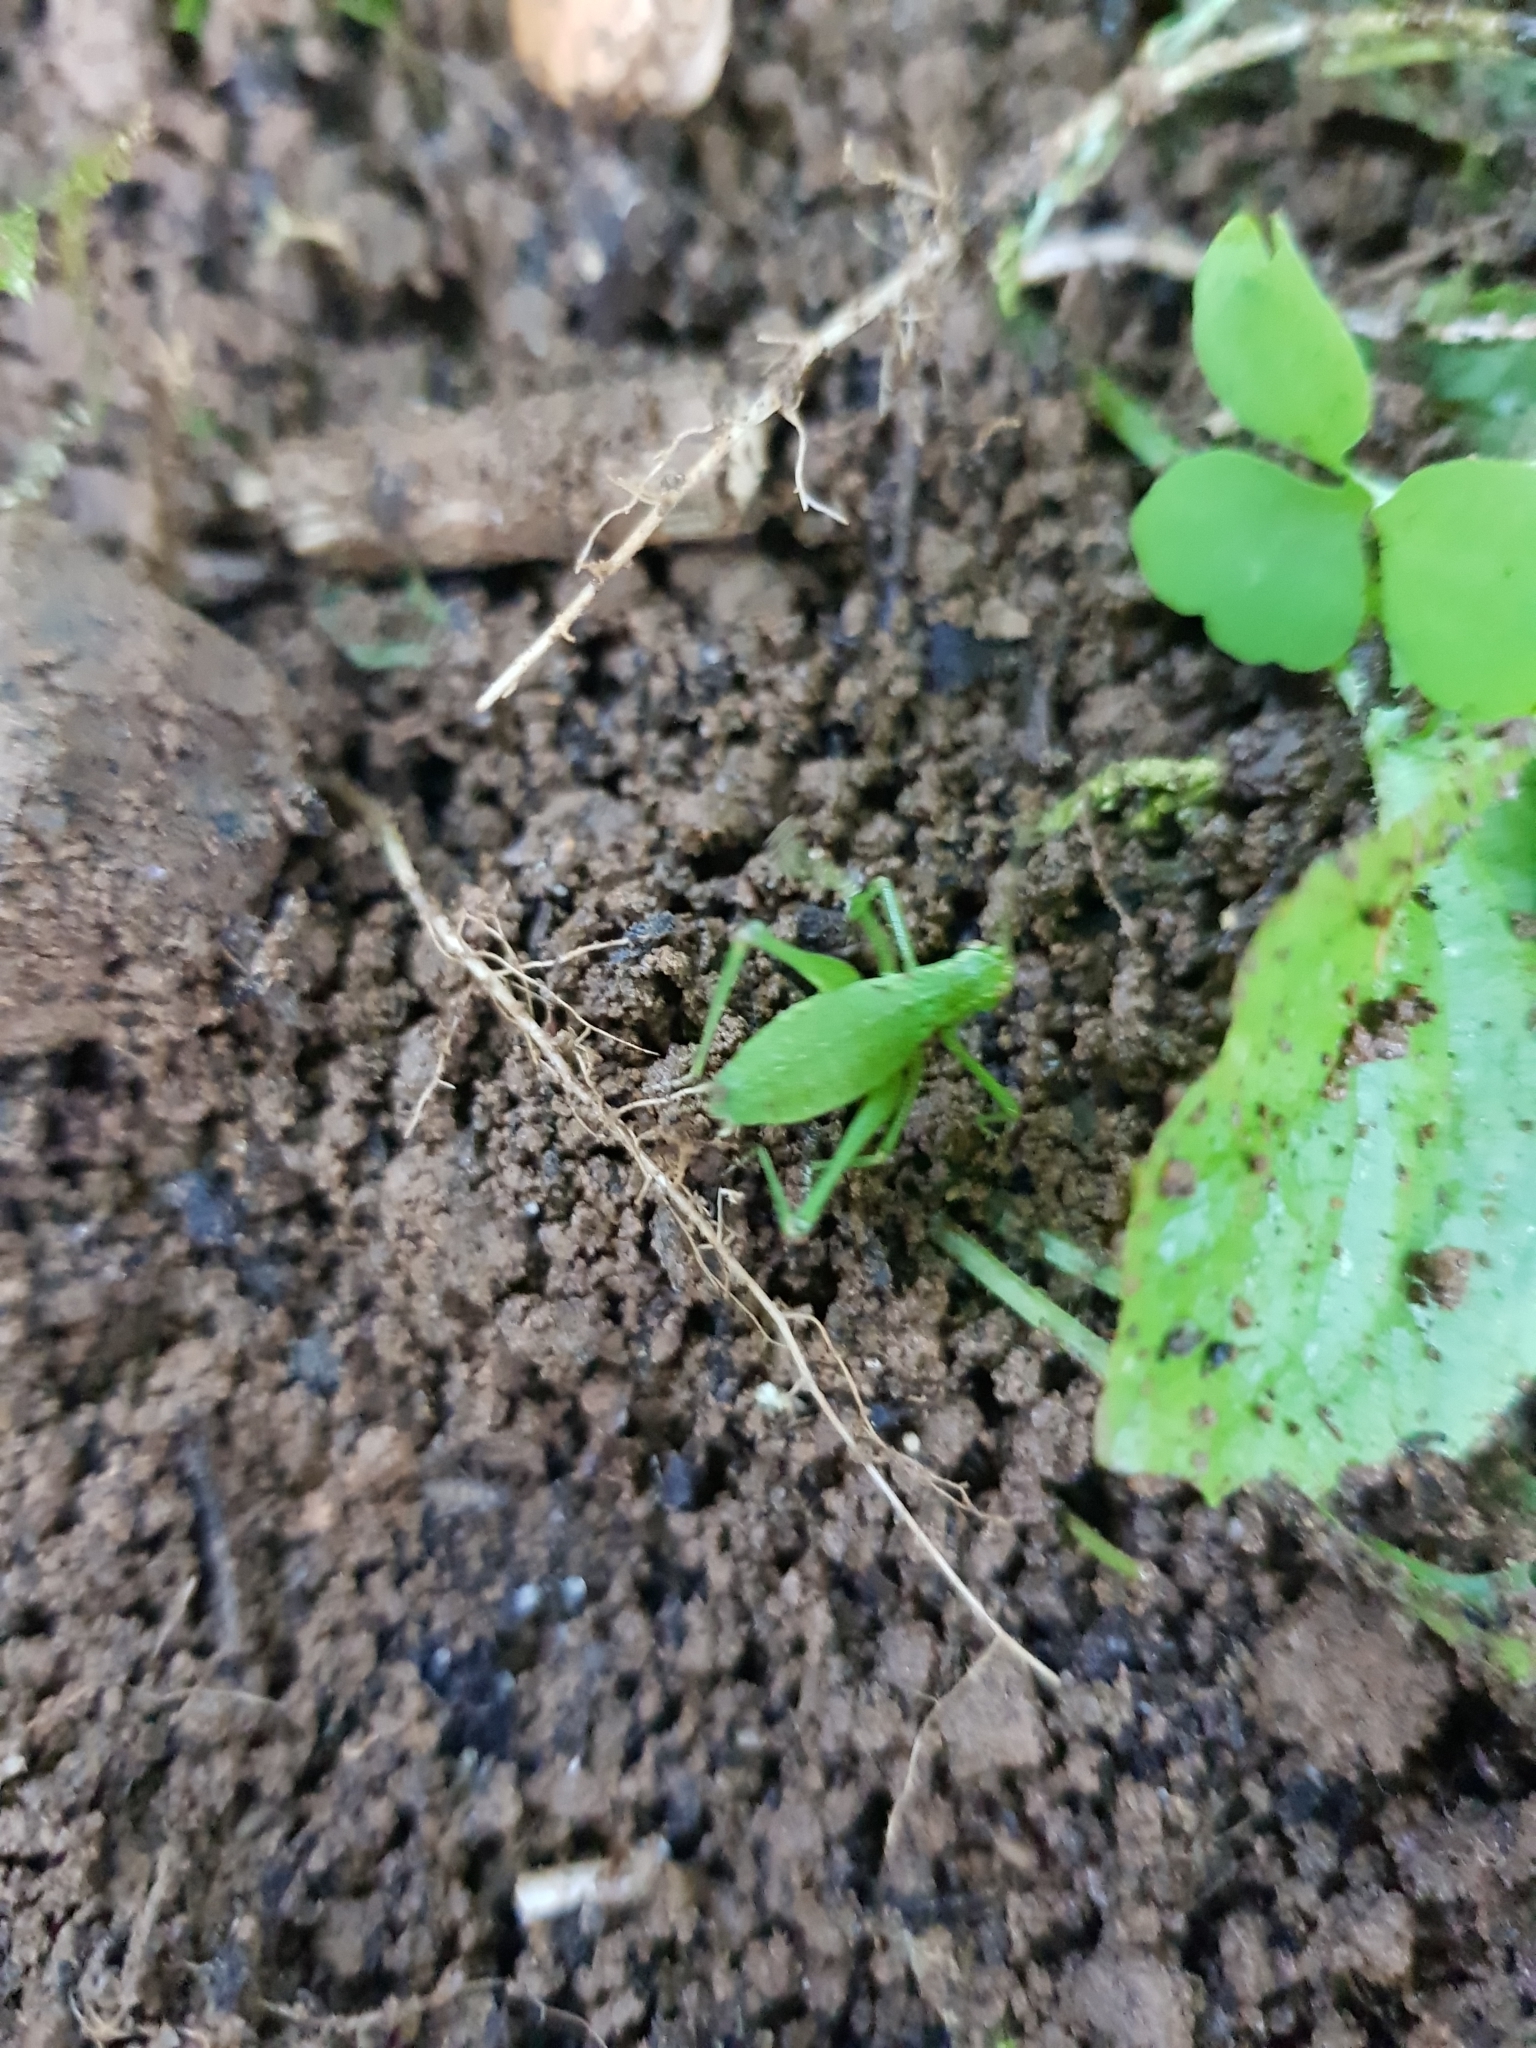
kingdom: Animalia
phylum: Arthropoda
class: Insecta
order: Orthoptera
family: Tettigoniidae
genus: Leptophyes
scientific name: Leptophyes punctatissima
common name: Speckled bush-cricket
